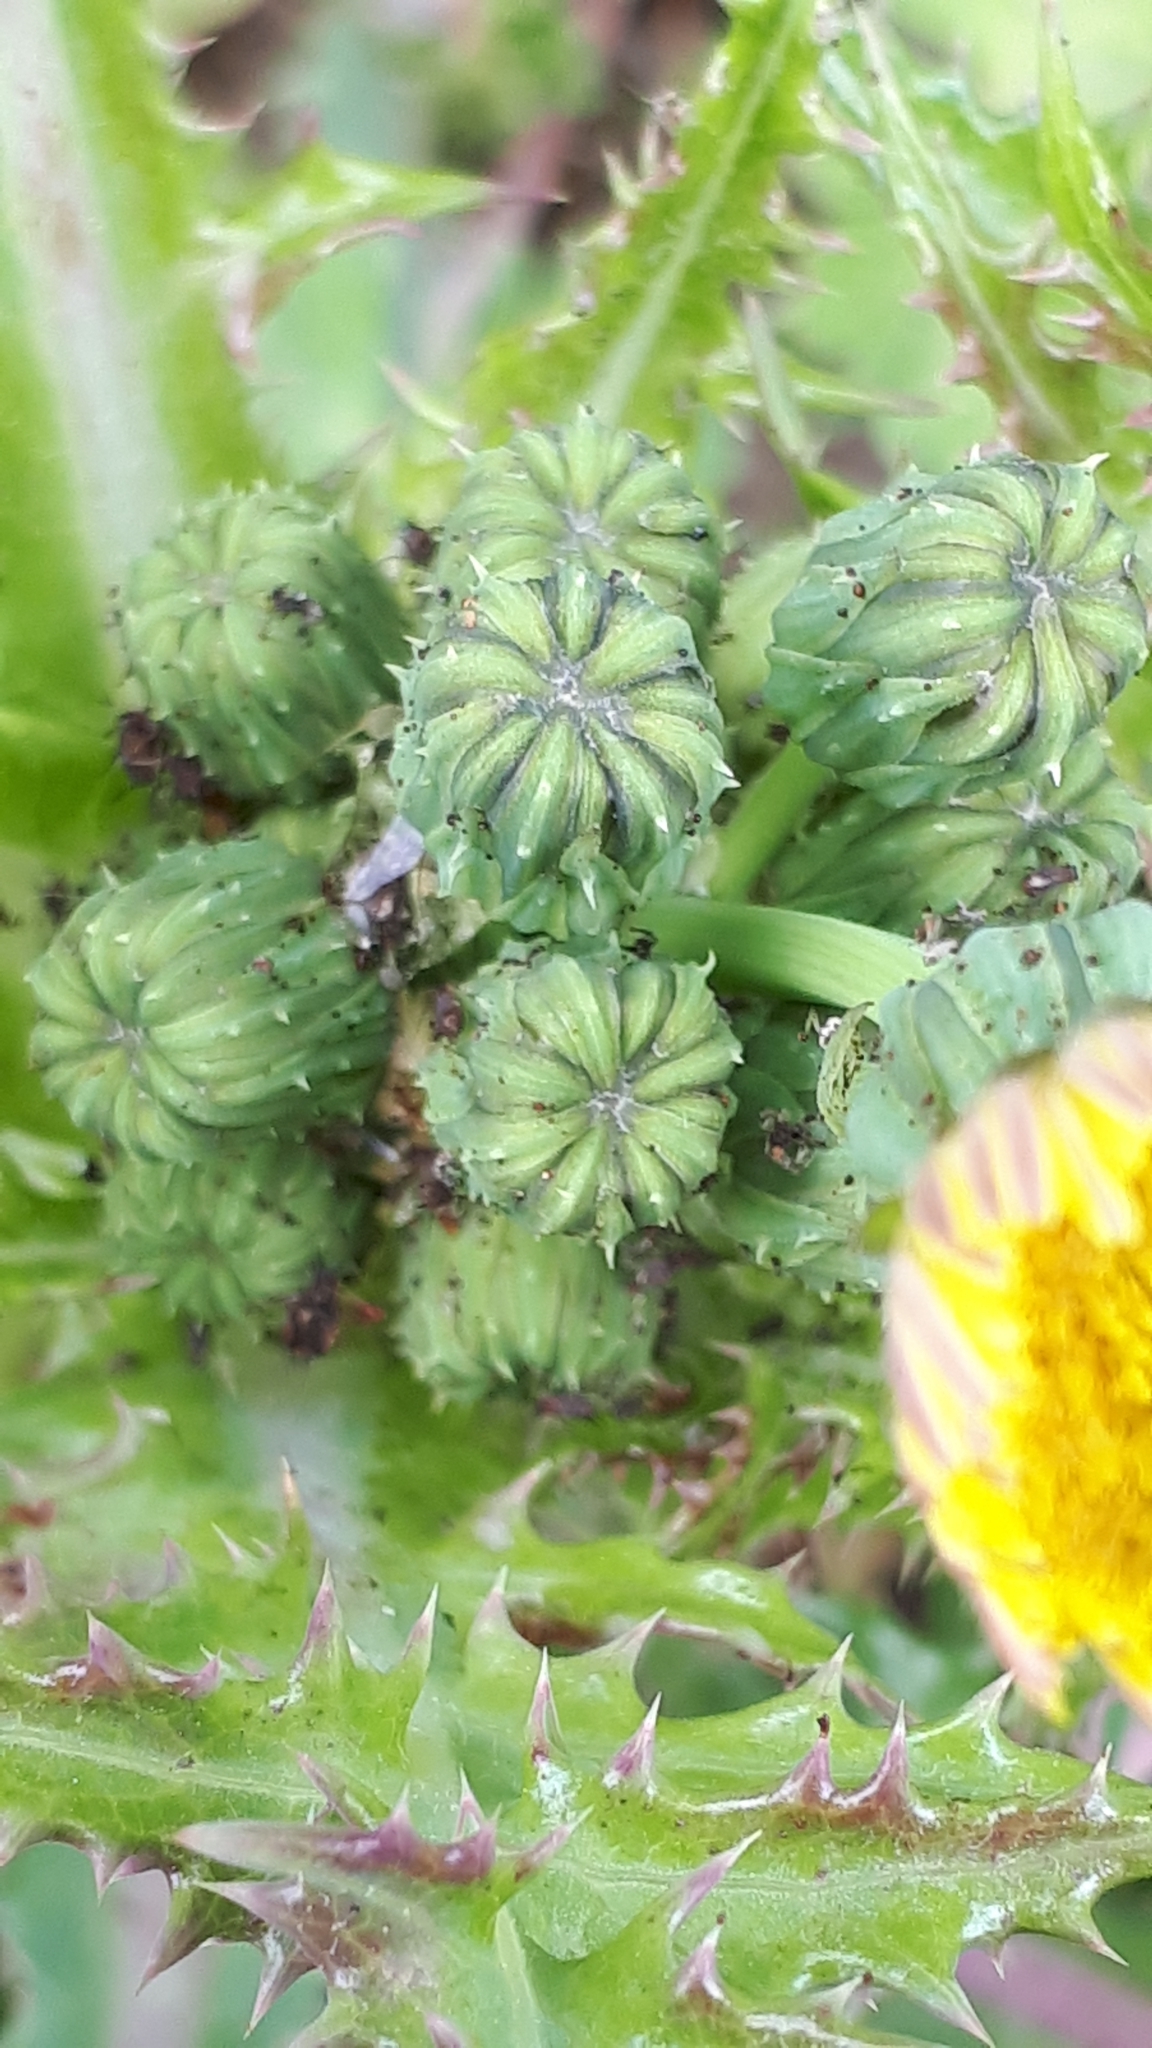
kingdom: Plantae
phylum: Tracheophyta
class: Magnoliopsida
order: Asterales
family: Asteraceae
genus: Sonchus
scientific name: Sonchus asper
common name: Prickly sow-thistle
